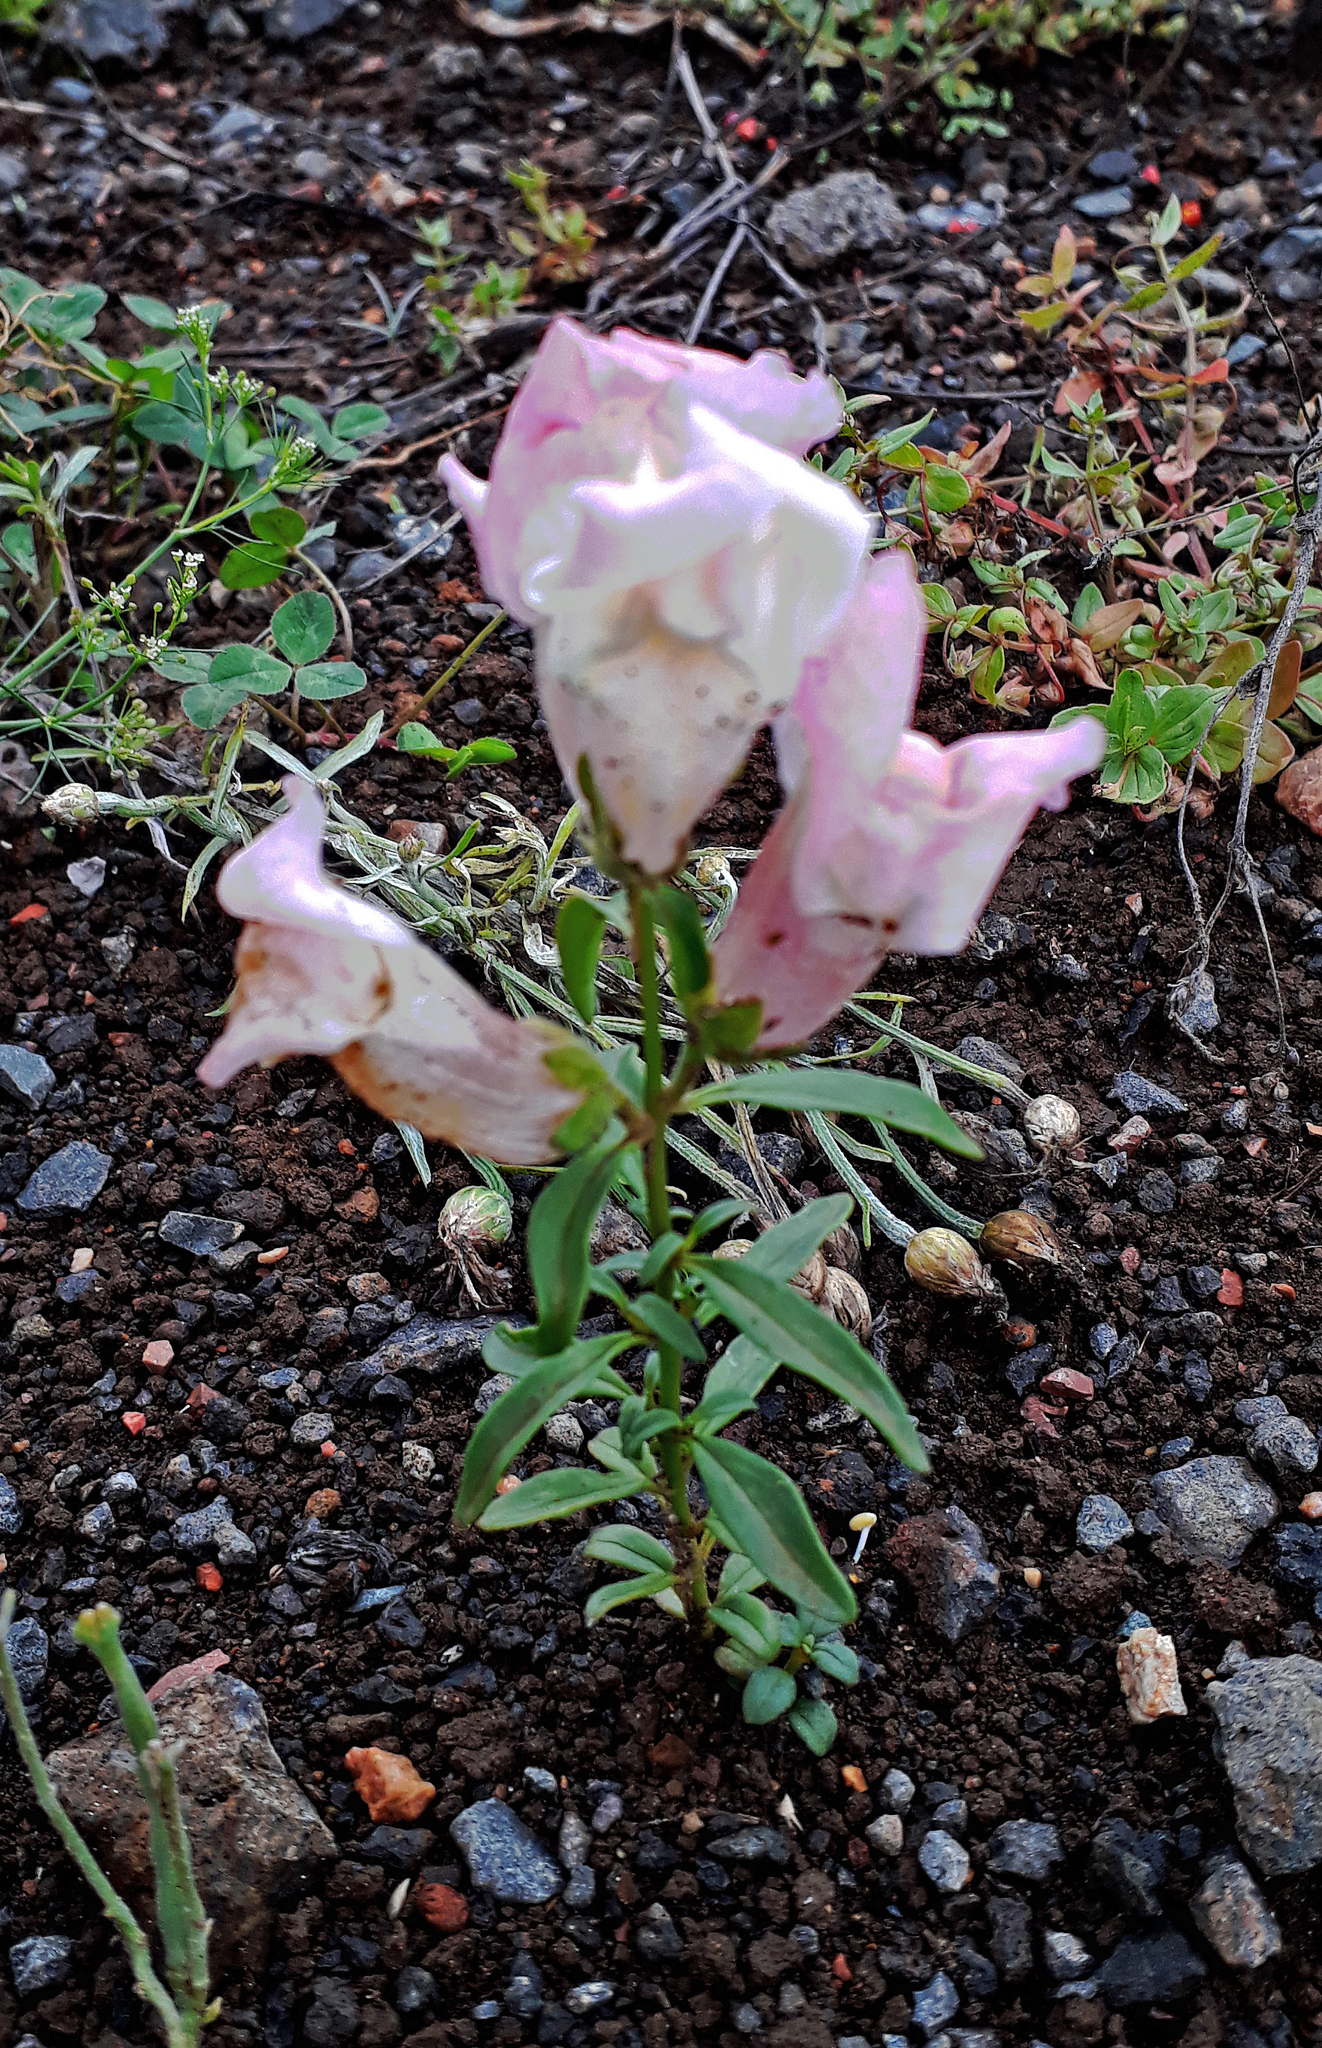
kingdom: Plantae
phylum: Tracheophyta
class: Magnoliopsida
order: Lamiales
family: Plantaginaceae
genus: Antirrhinum
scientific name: Antirrhinum majus
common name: Snapdragon
